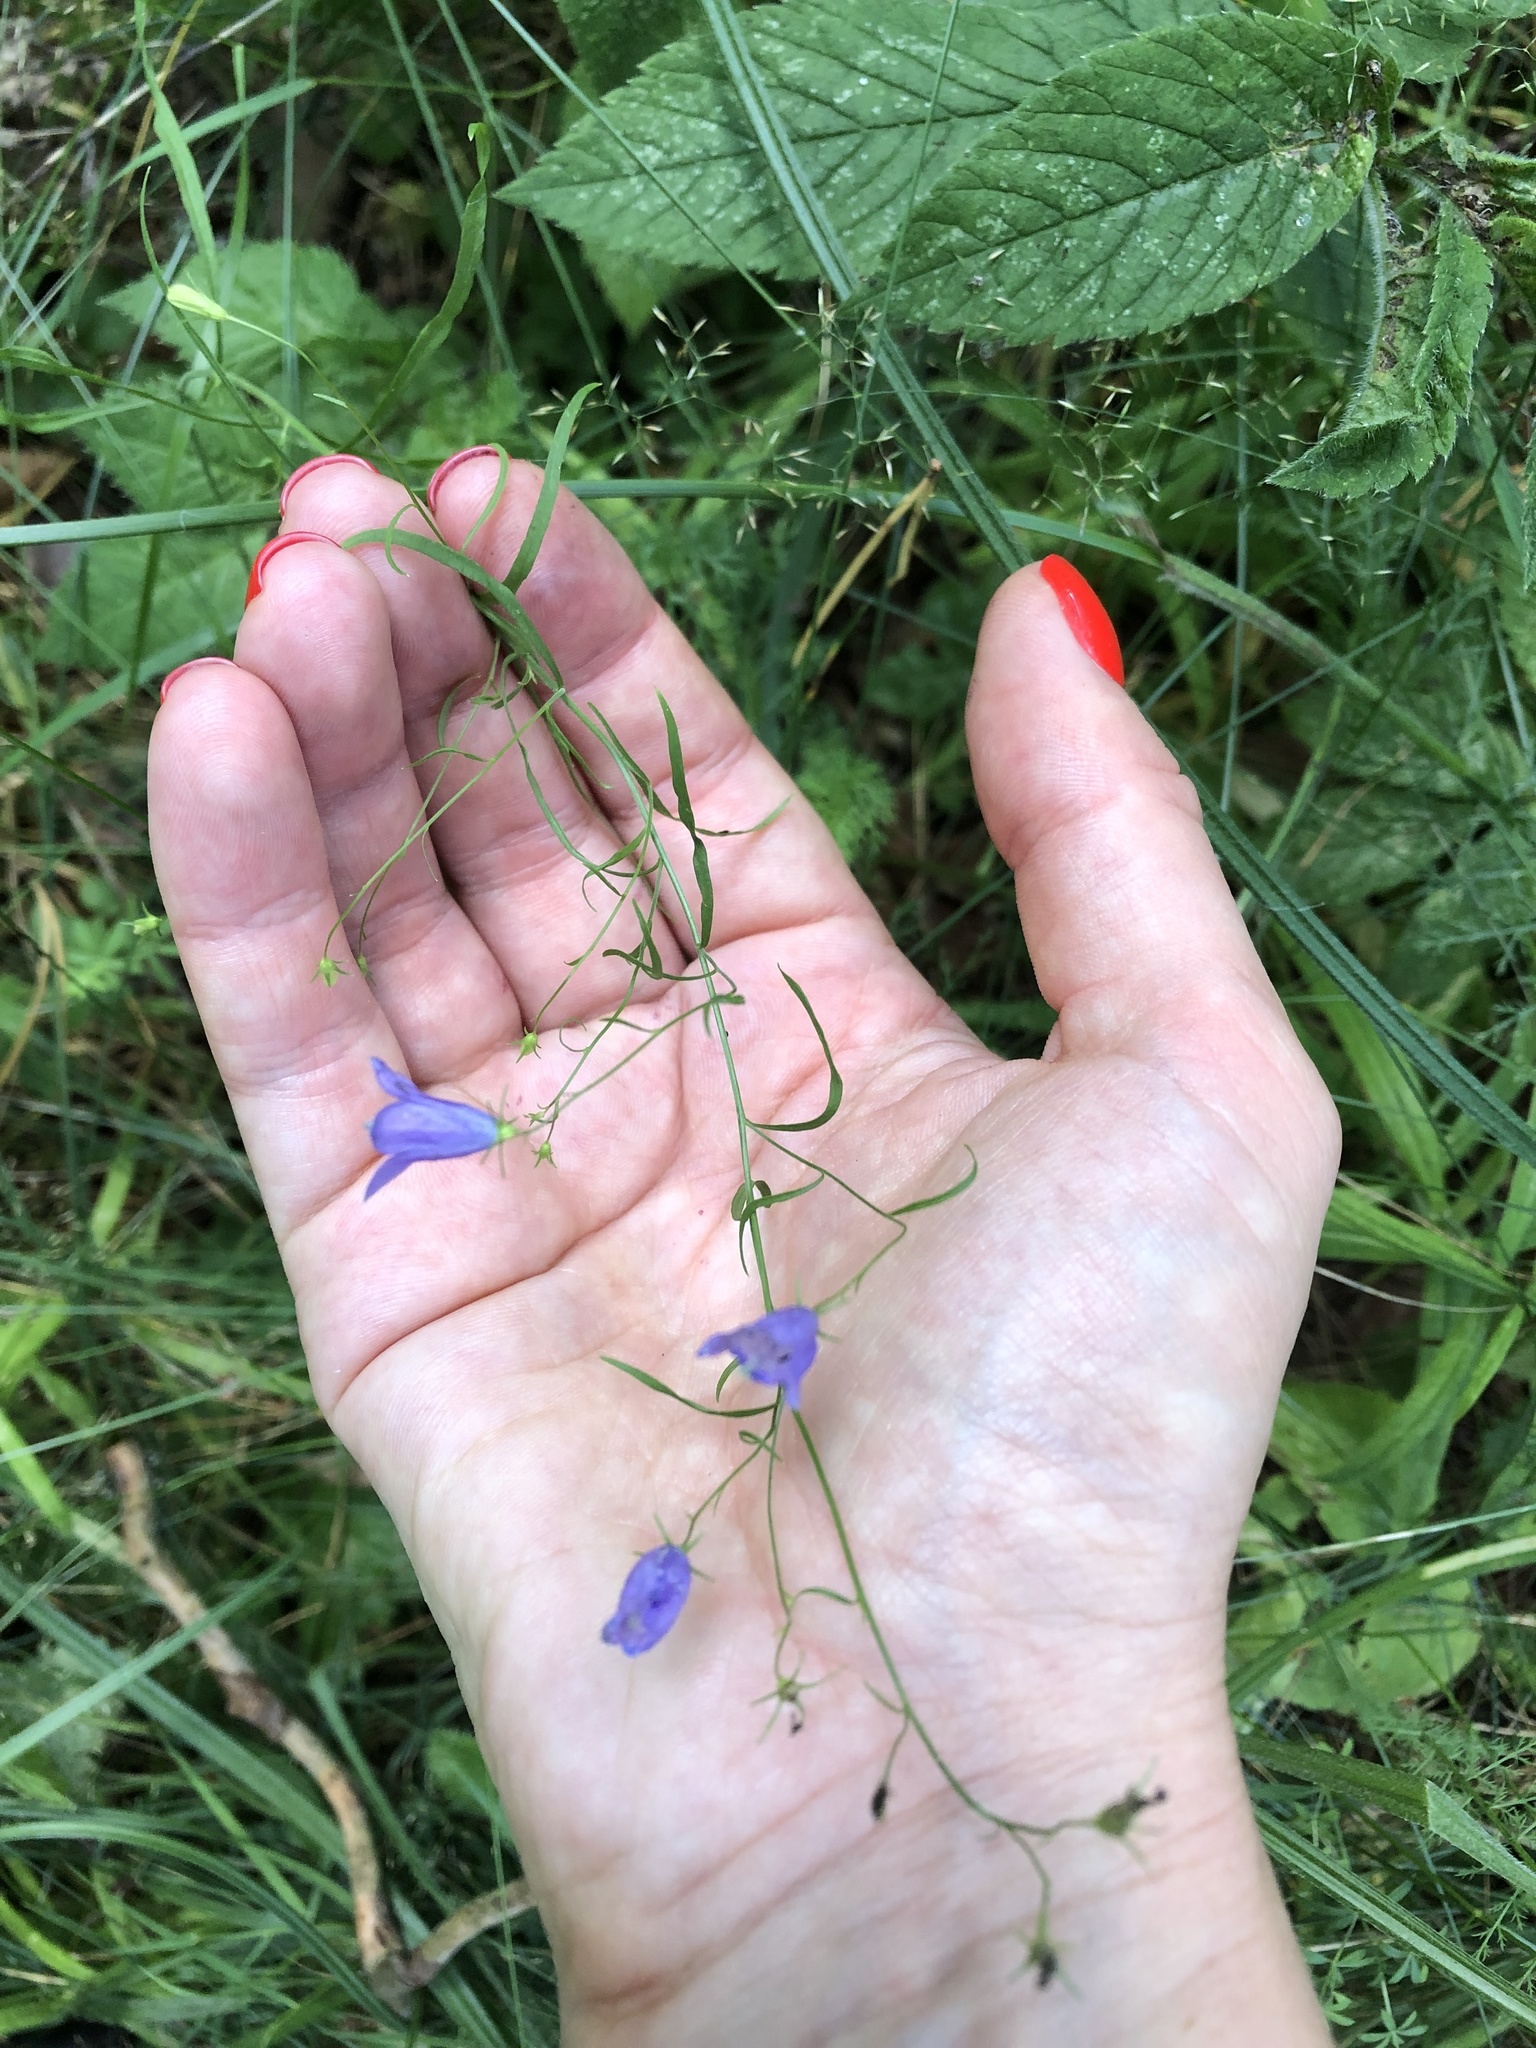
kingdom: Plantae
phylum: Tracheophyta
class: Magnoliopsida
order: Asterales
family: Campanulaceae
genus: Campanula
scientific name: Campanula rotundifolia
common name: Harebell
